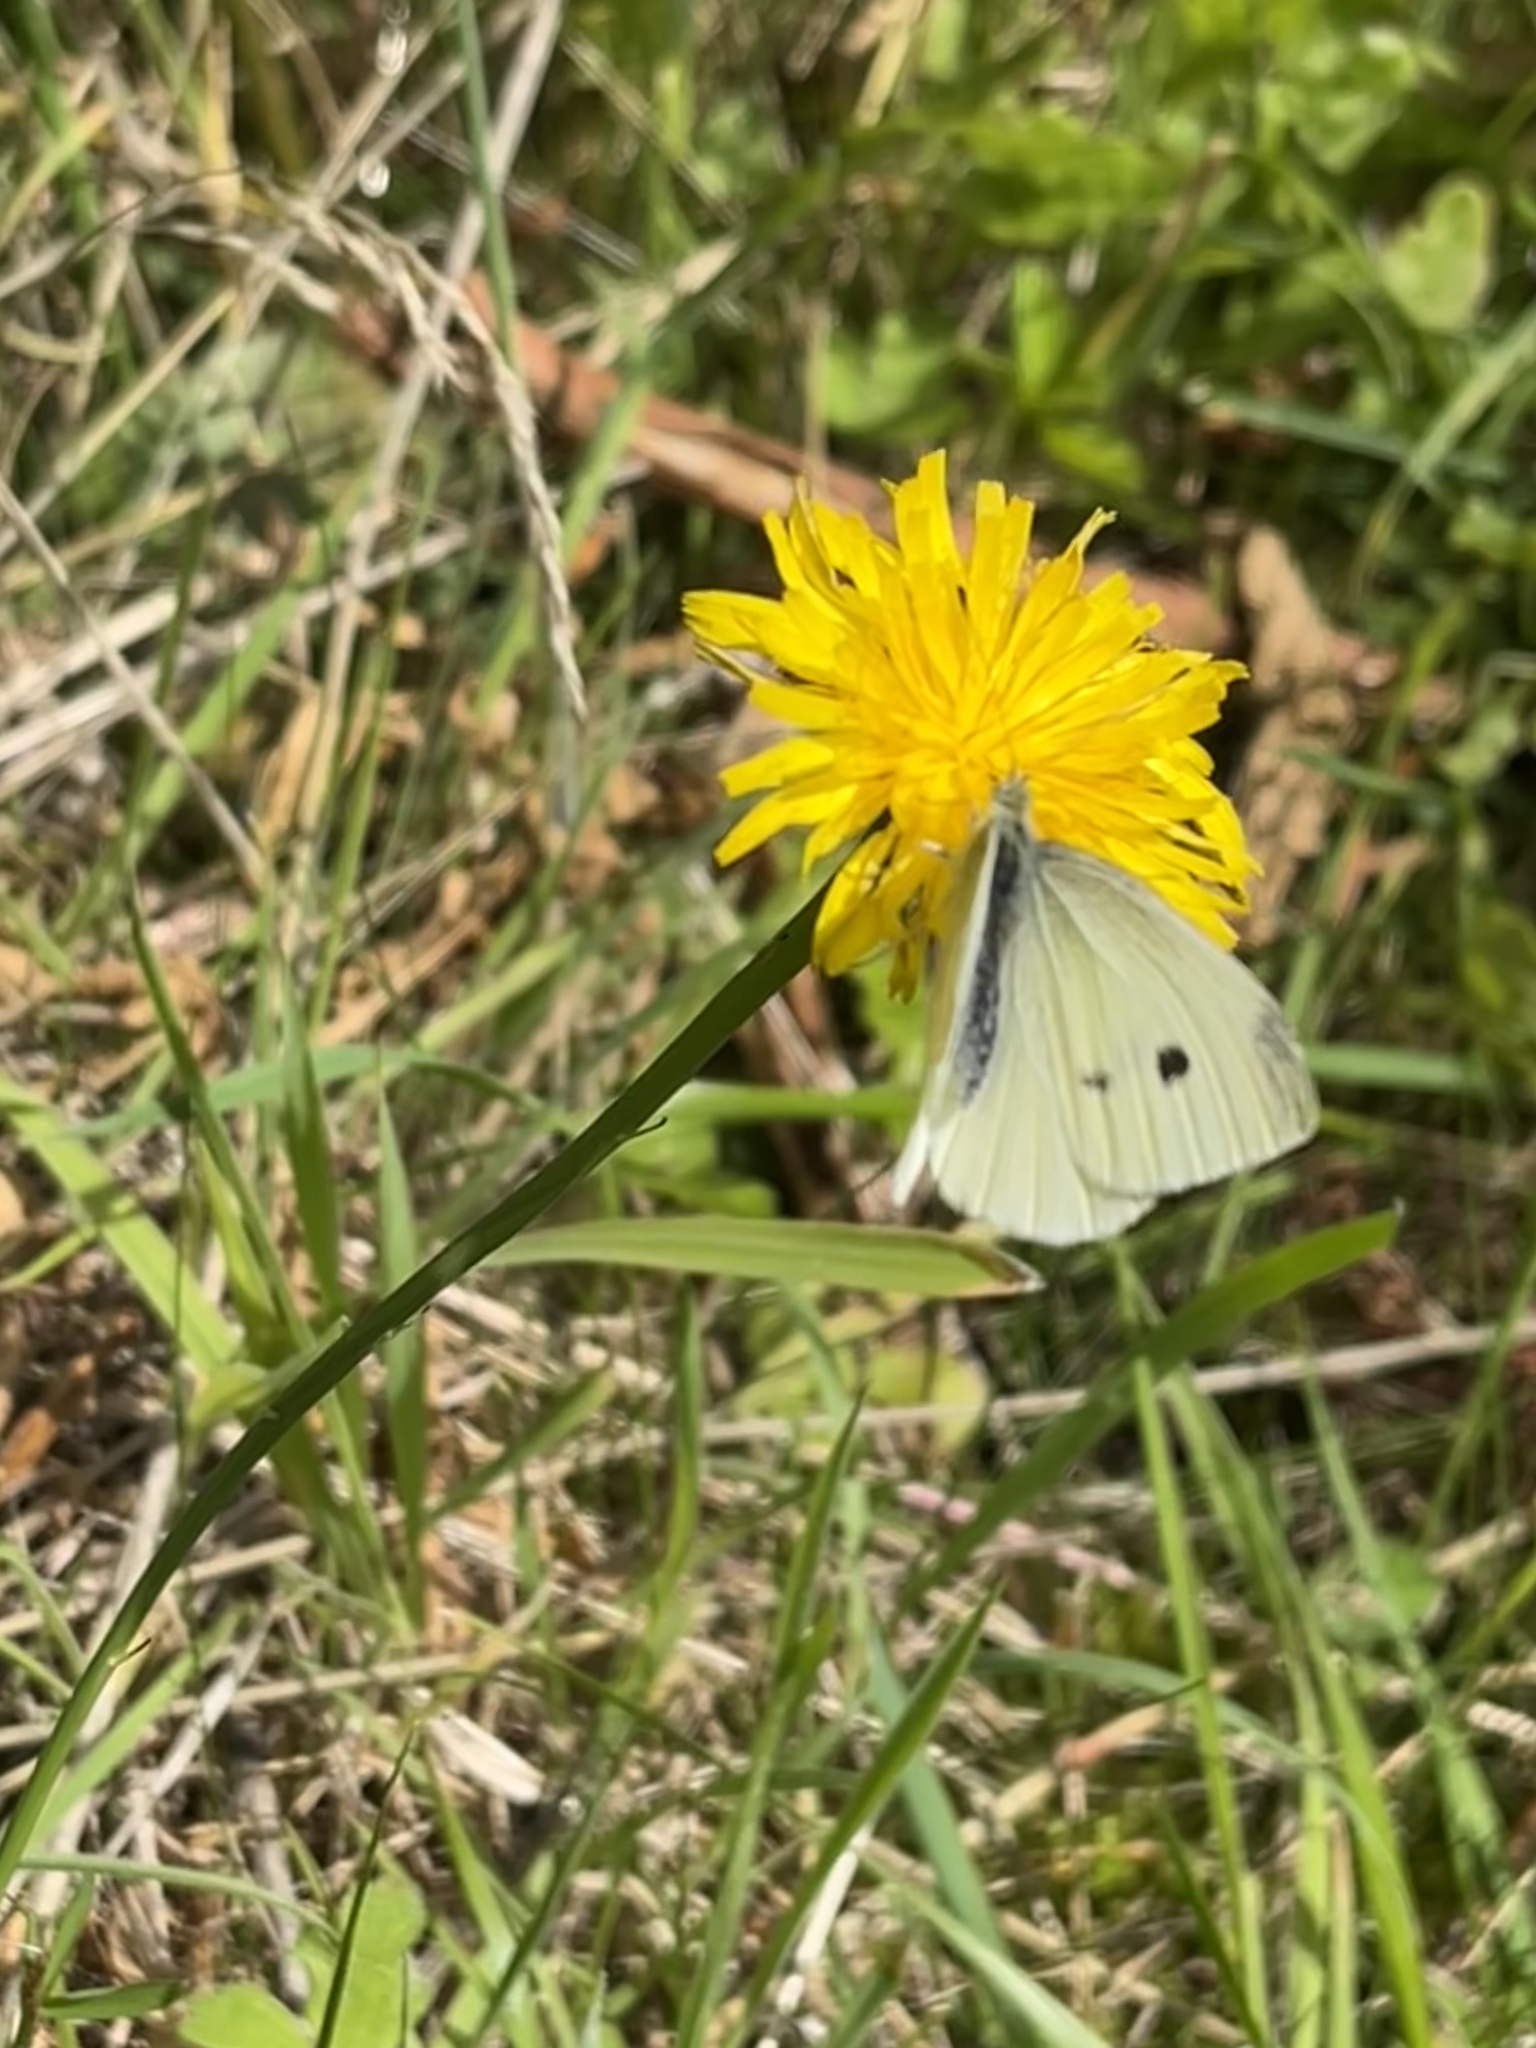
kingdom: Animalia
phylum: Arthropoda
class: Insecta
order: Lepidoptera
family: Pieridae
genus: Pieris
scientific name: Pieris rapae
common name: Small white
